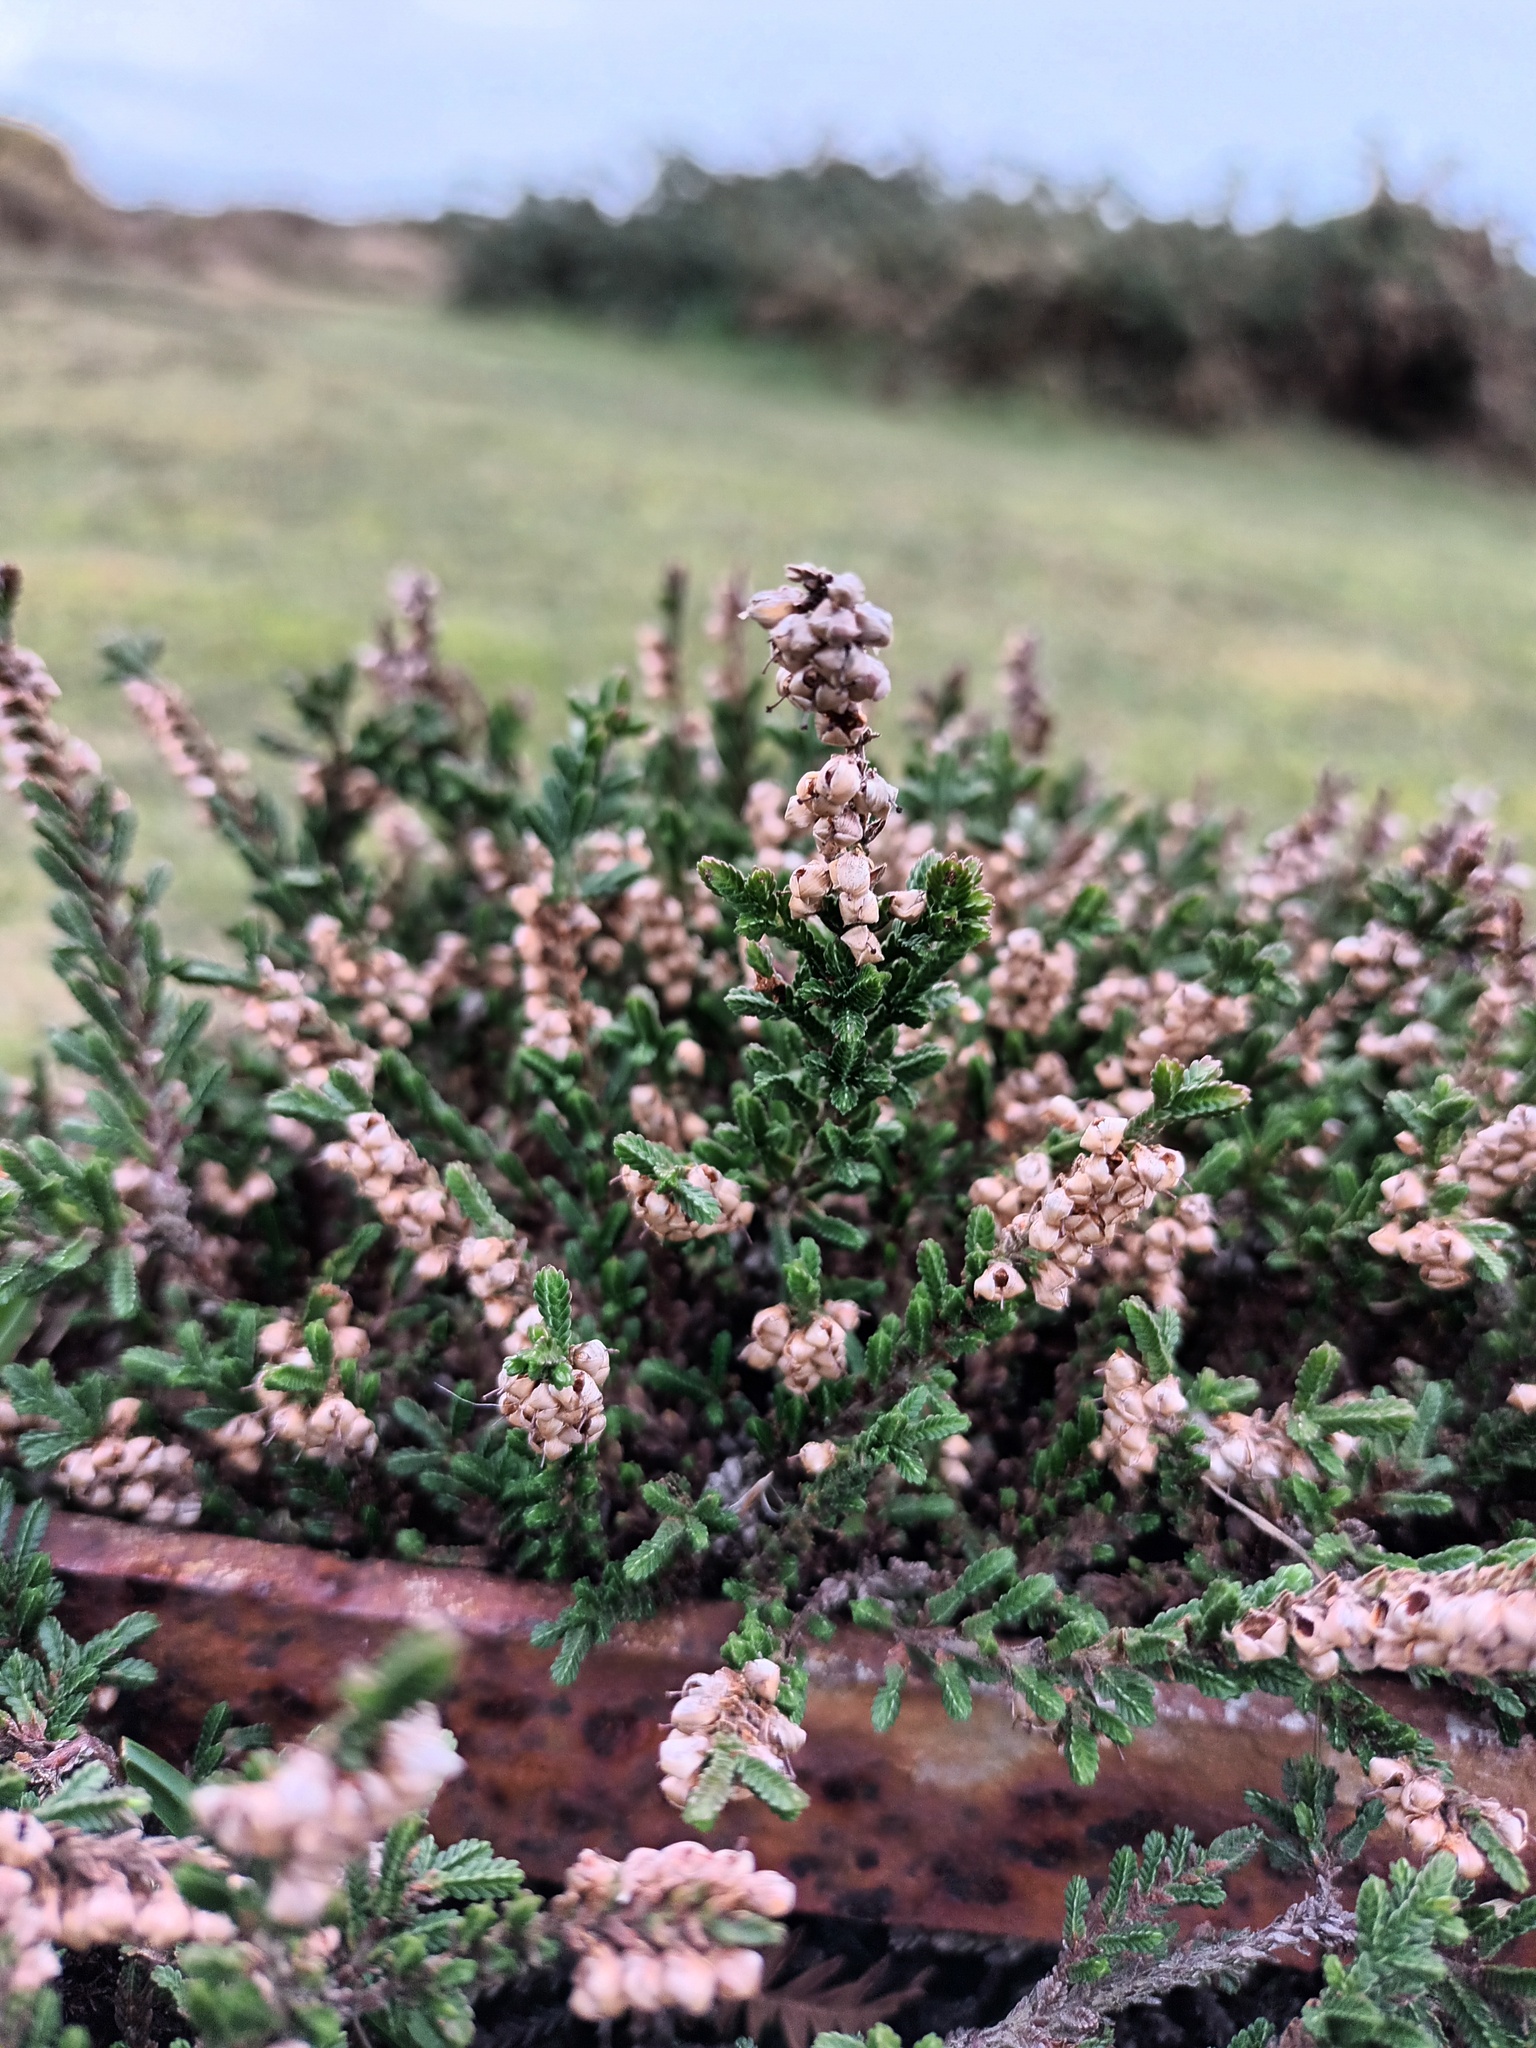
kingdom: Plantae
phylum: Tracheophyta
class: Magnoliopsida
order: Ericales
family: Ericaceae
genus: Calluna
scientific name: Calluna vulgaris
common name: Heather
